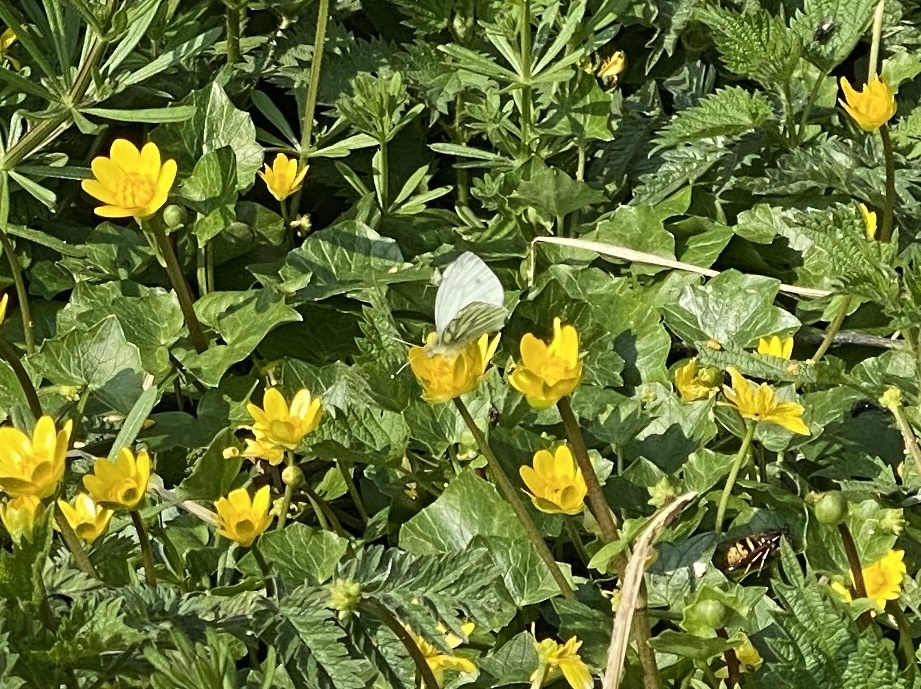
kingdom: Animalia
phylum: Arthropoda
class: Insecta
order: Lepidoptera
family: Pieridae
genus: Pieris
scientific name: Pieris napi
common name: Green-veined white
